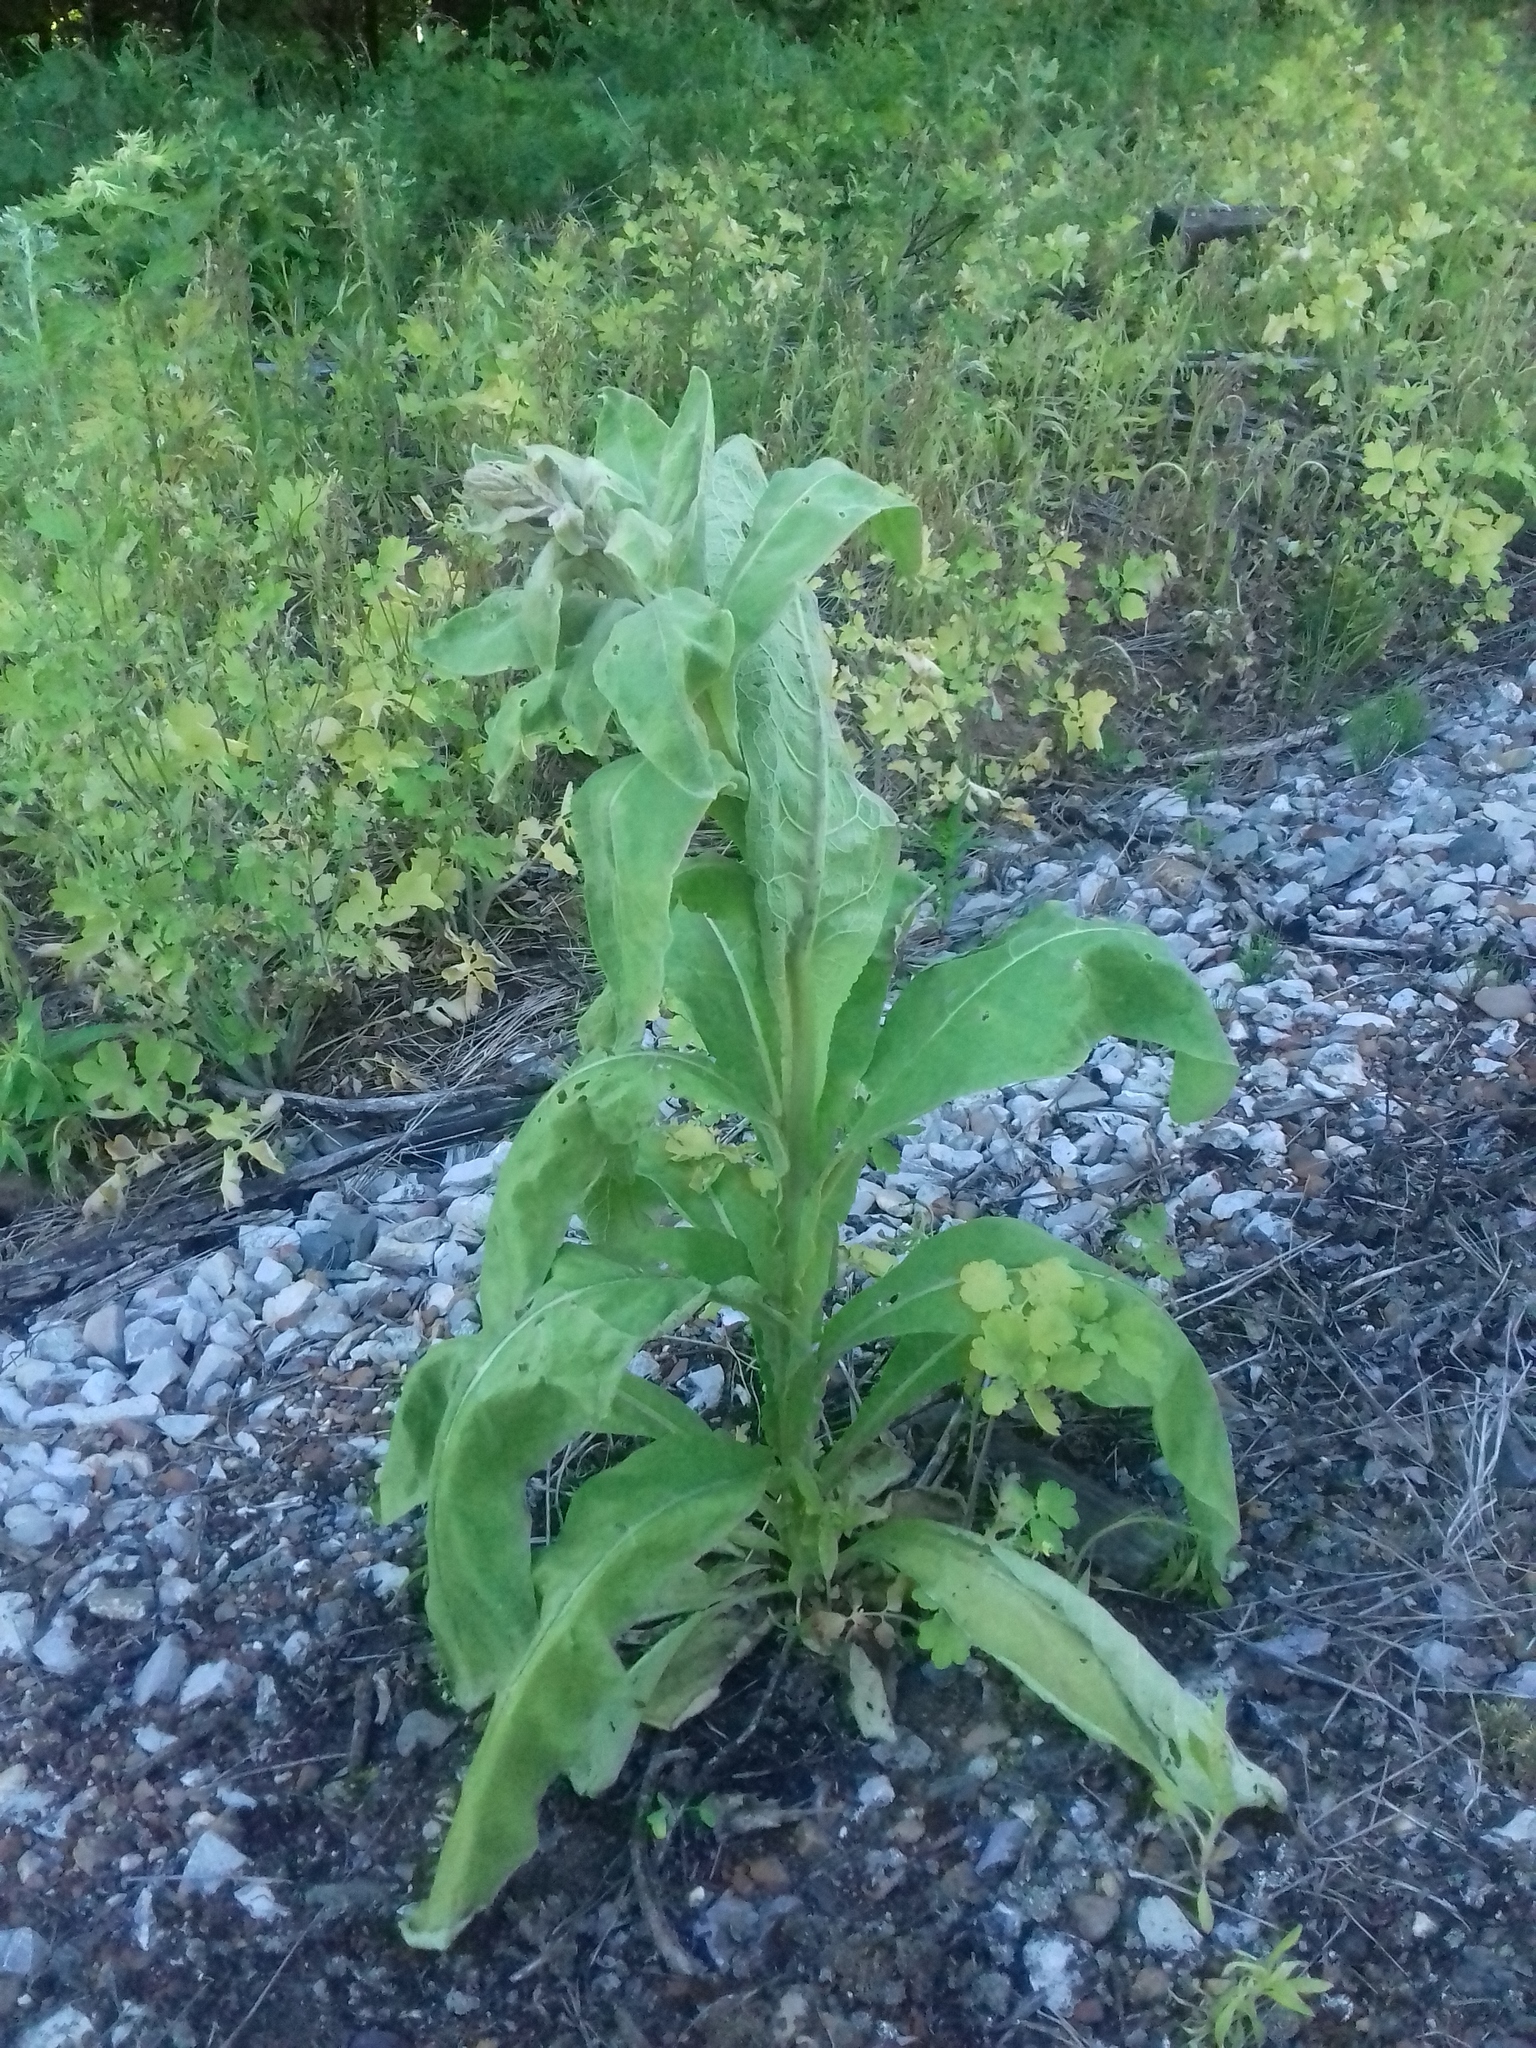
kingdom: Plantae
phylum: Tracheophyta
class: Magnoliopsida
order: Lamiales
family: Scrophulariaceae
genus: Verbascum
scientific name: Verbascum thapsus
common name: Common mullein
